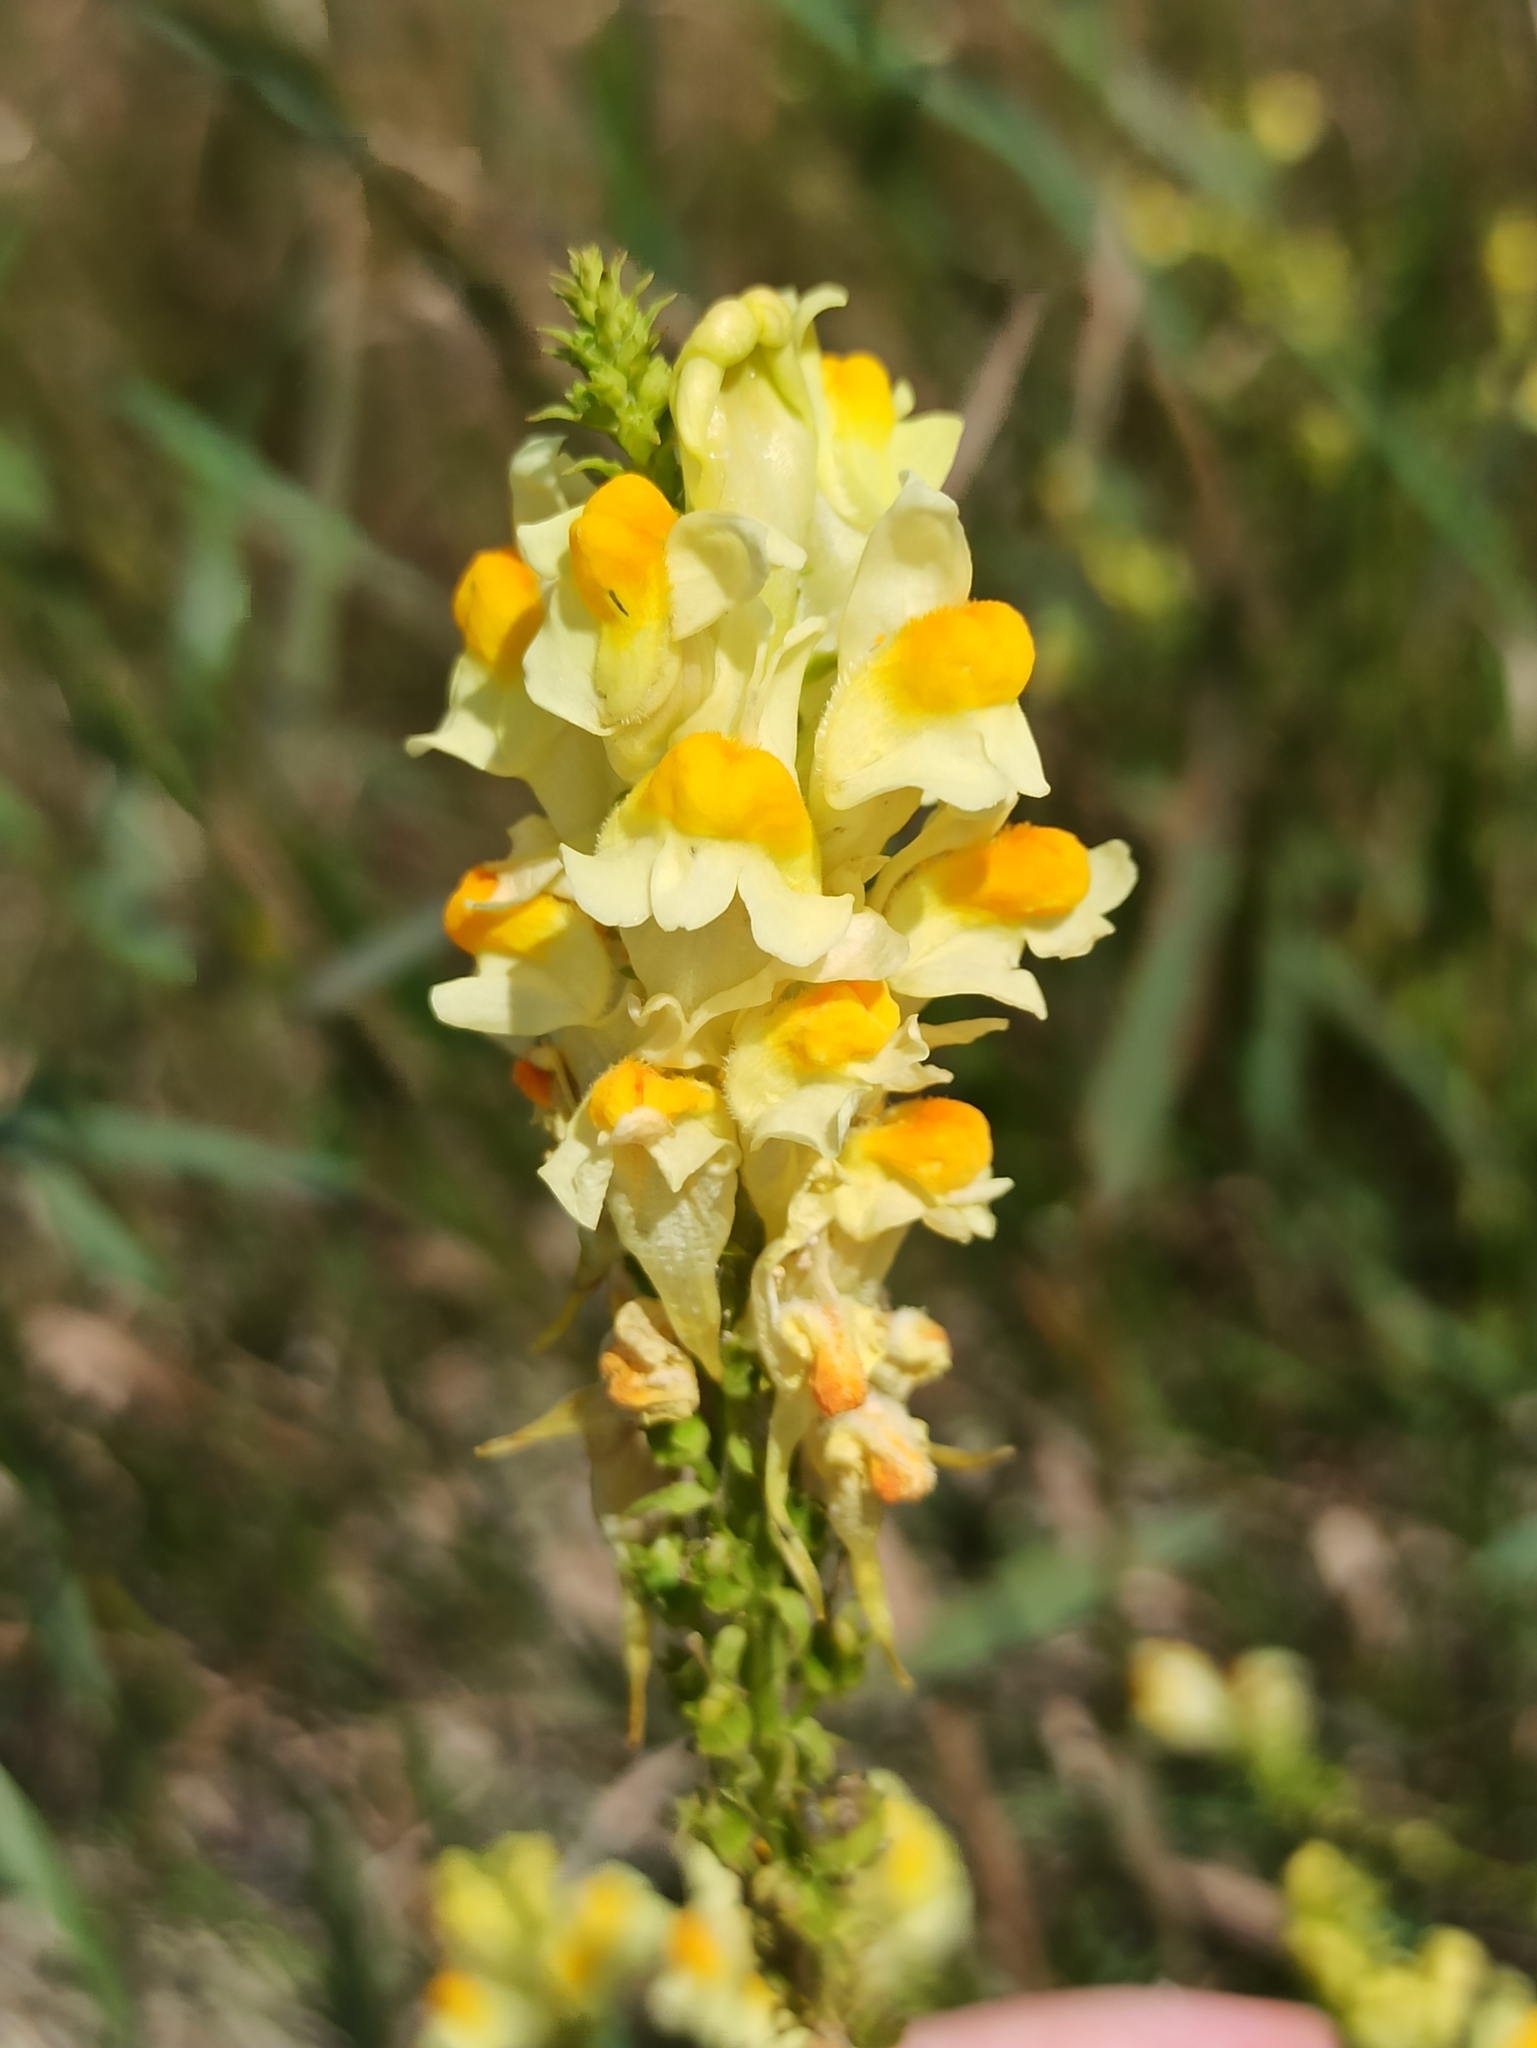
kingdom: Plantae
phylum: Tracheophyta
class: Magnoliopsida
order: Lamiales
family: Plantaginaceae
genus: Linaria
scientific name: Linaria vulgaris
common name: Butter and eggs
